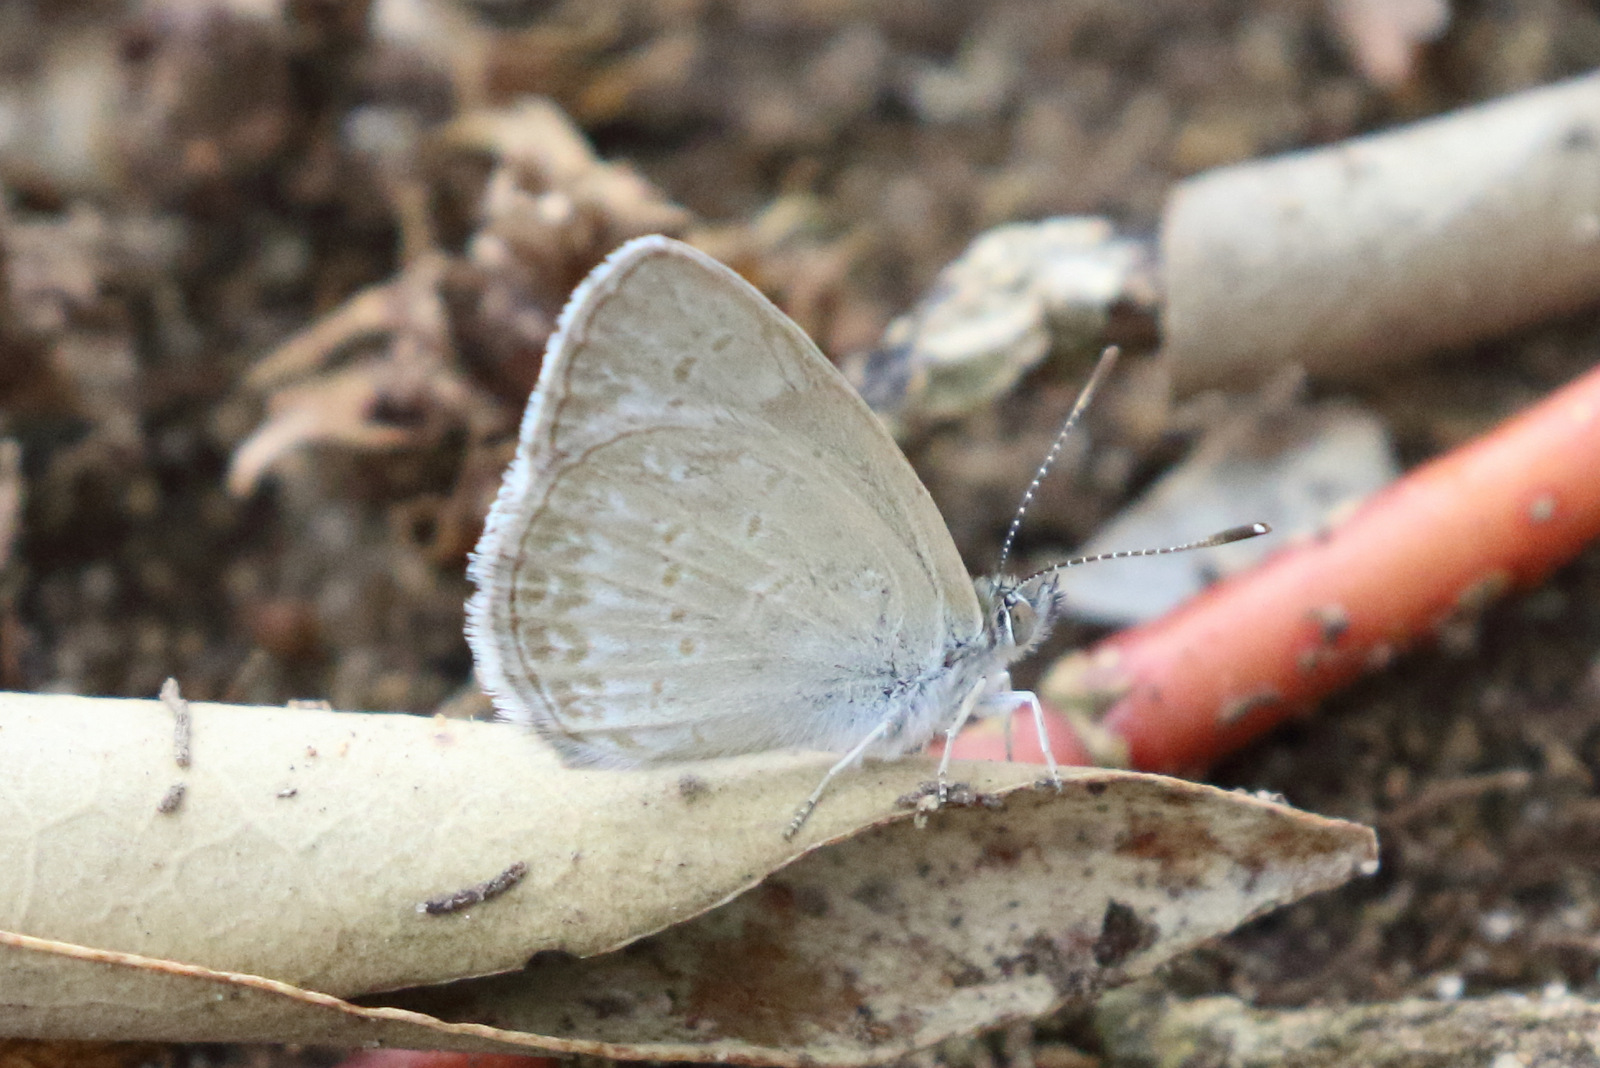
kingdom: Animalia
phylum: Arthropoda
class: Insecta
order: Lepidoptera
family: Lycaenidae
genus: Zizina
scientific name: Zizina otis
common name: Lesser grass blue
